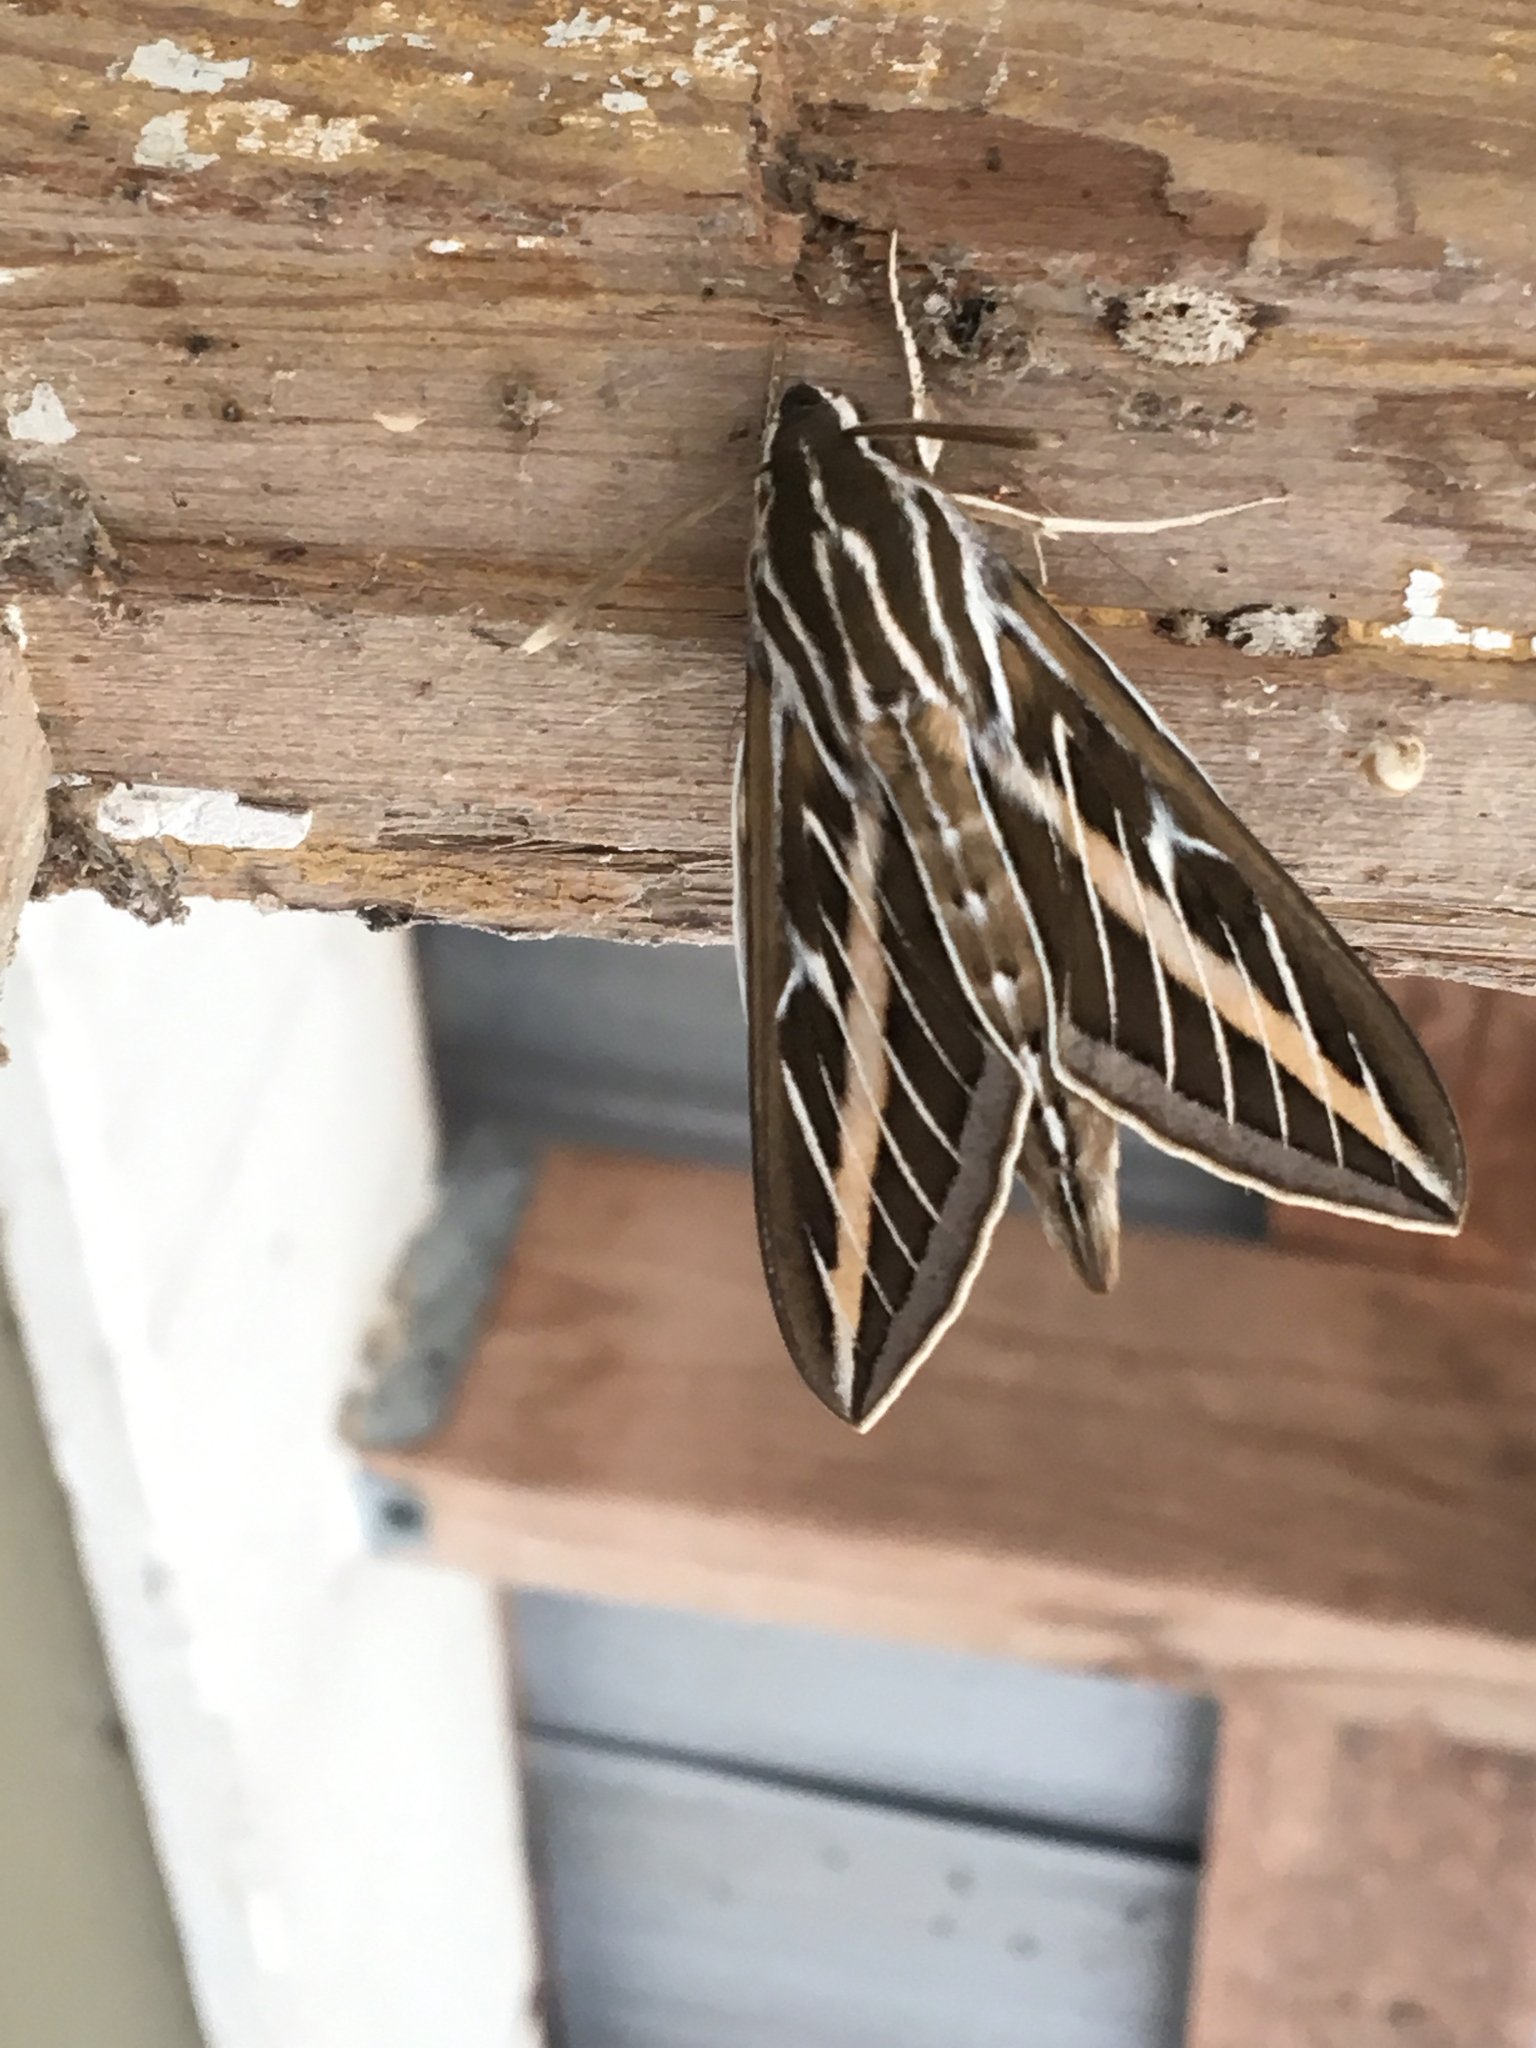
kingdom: Animalia
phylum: Arthropoda
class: Insecta
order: Lepidoptera
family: Sphingidae
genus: Hyles
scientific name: Hyles lineata
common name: White-lined sphinx
